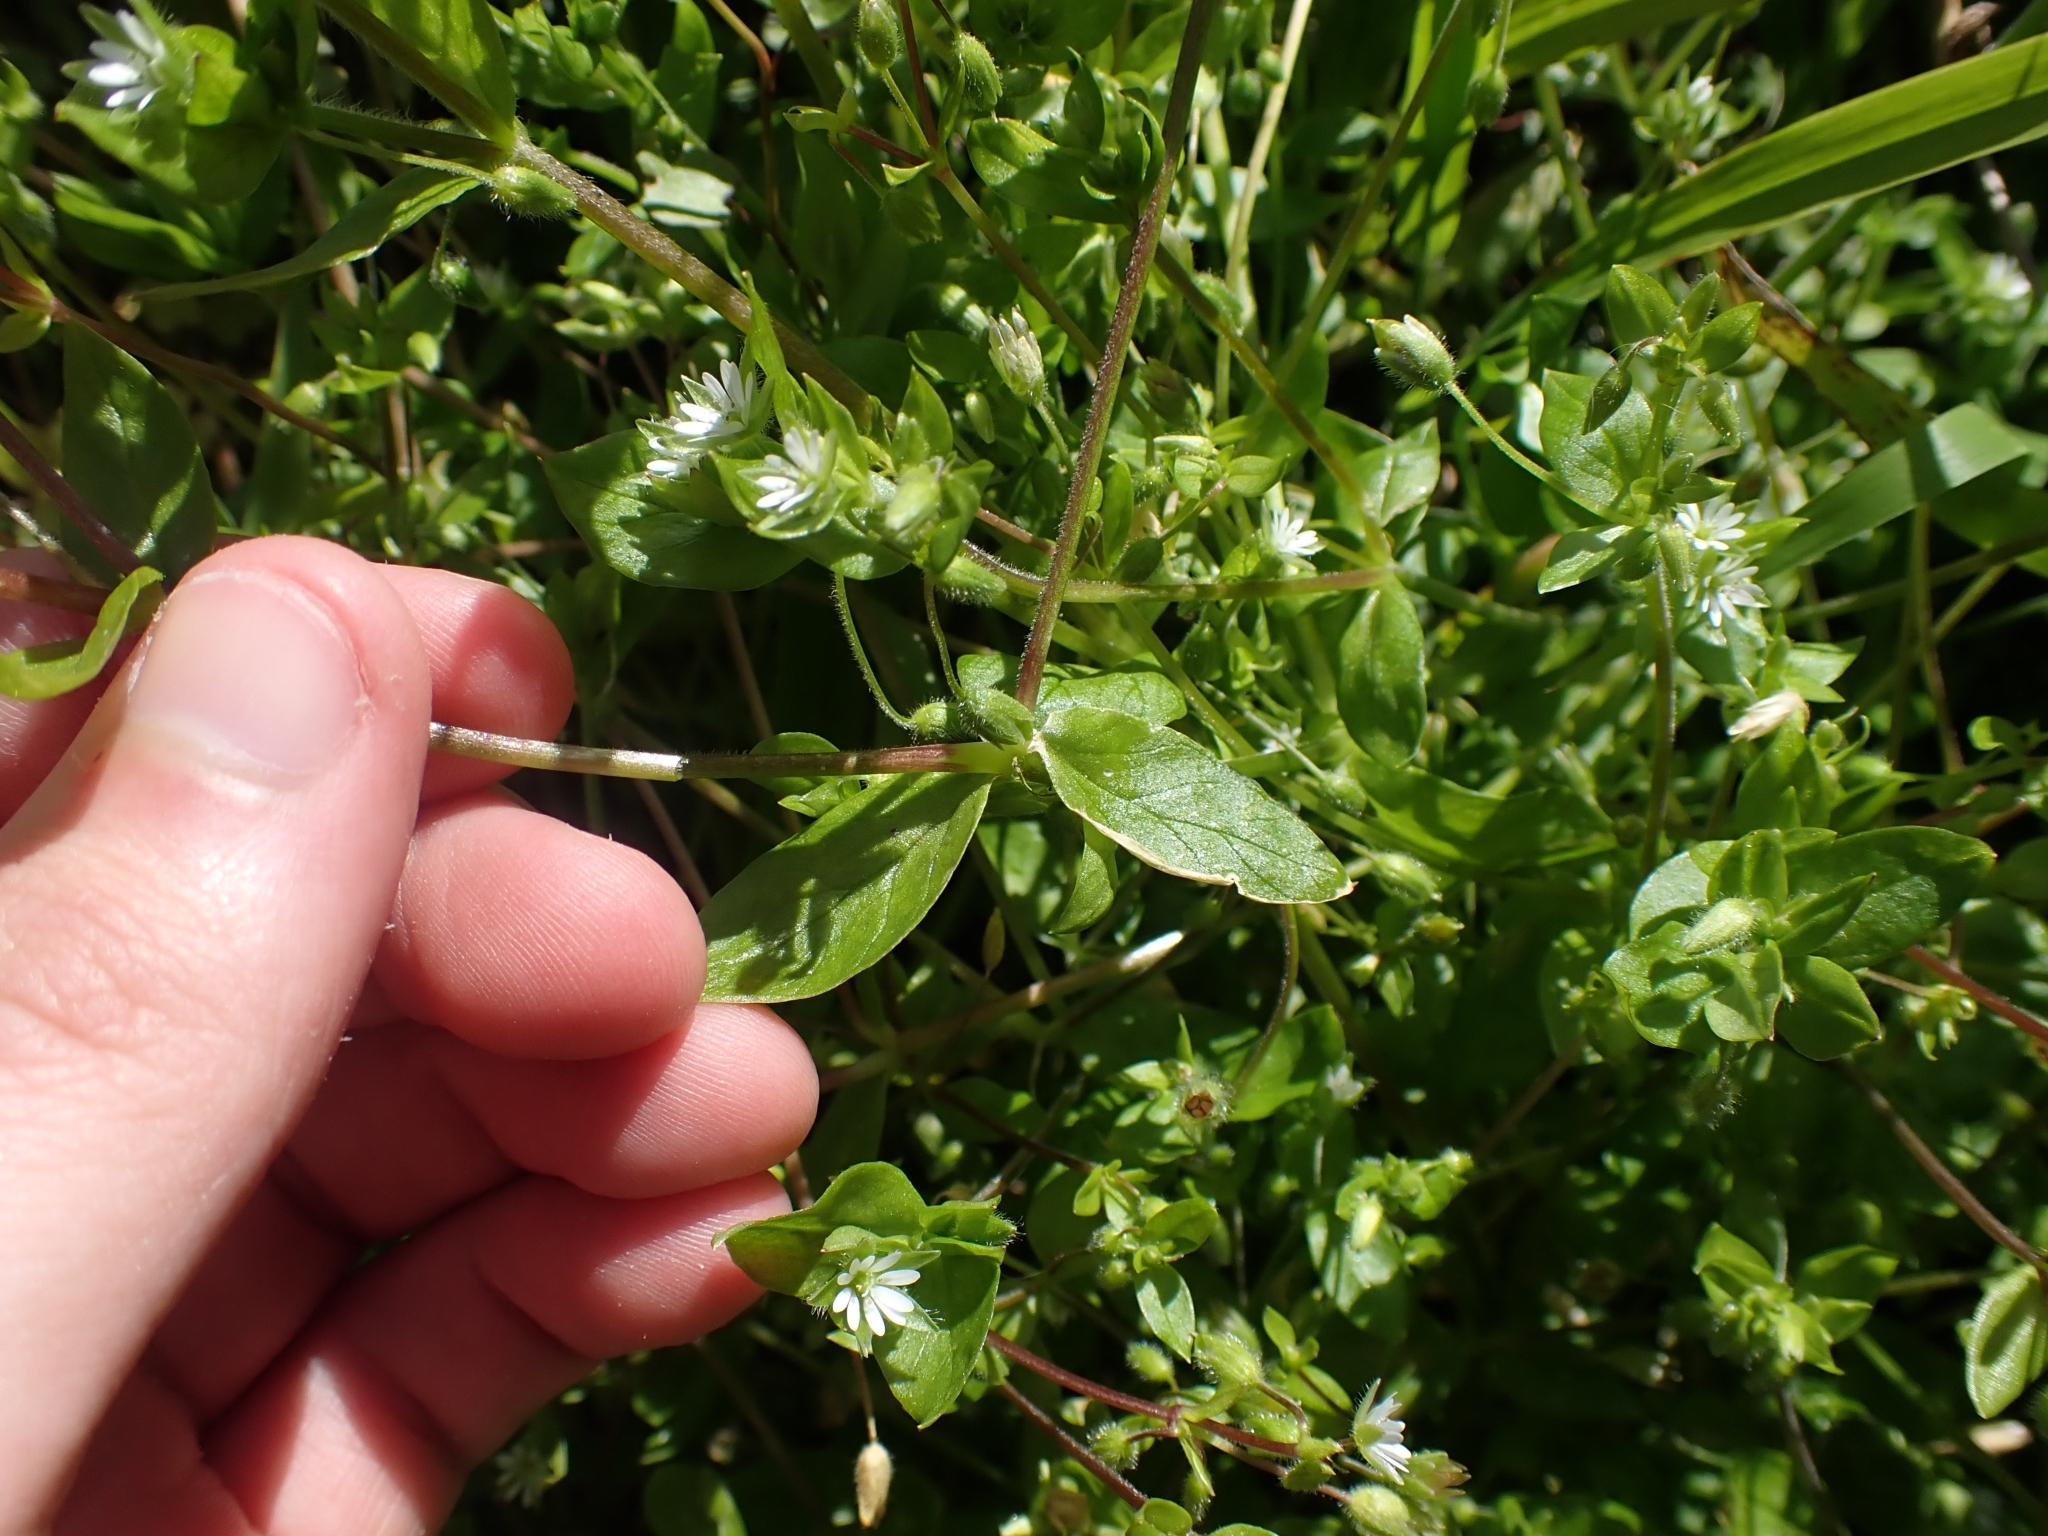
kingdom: Plantae
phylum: Tracheophyta
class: Magnoliopsida
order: Caryophyllales
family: Caryophyllaceae
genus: Stellaria
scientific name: Stellaria media
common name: Common chickweed
